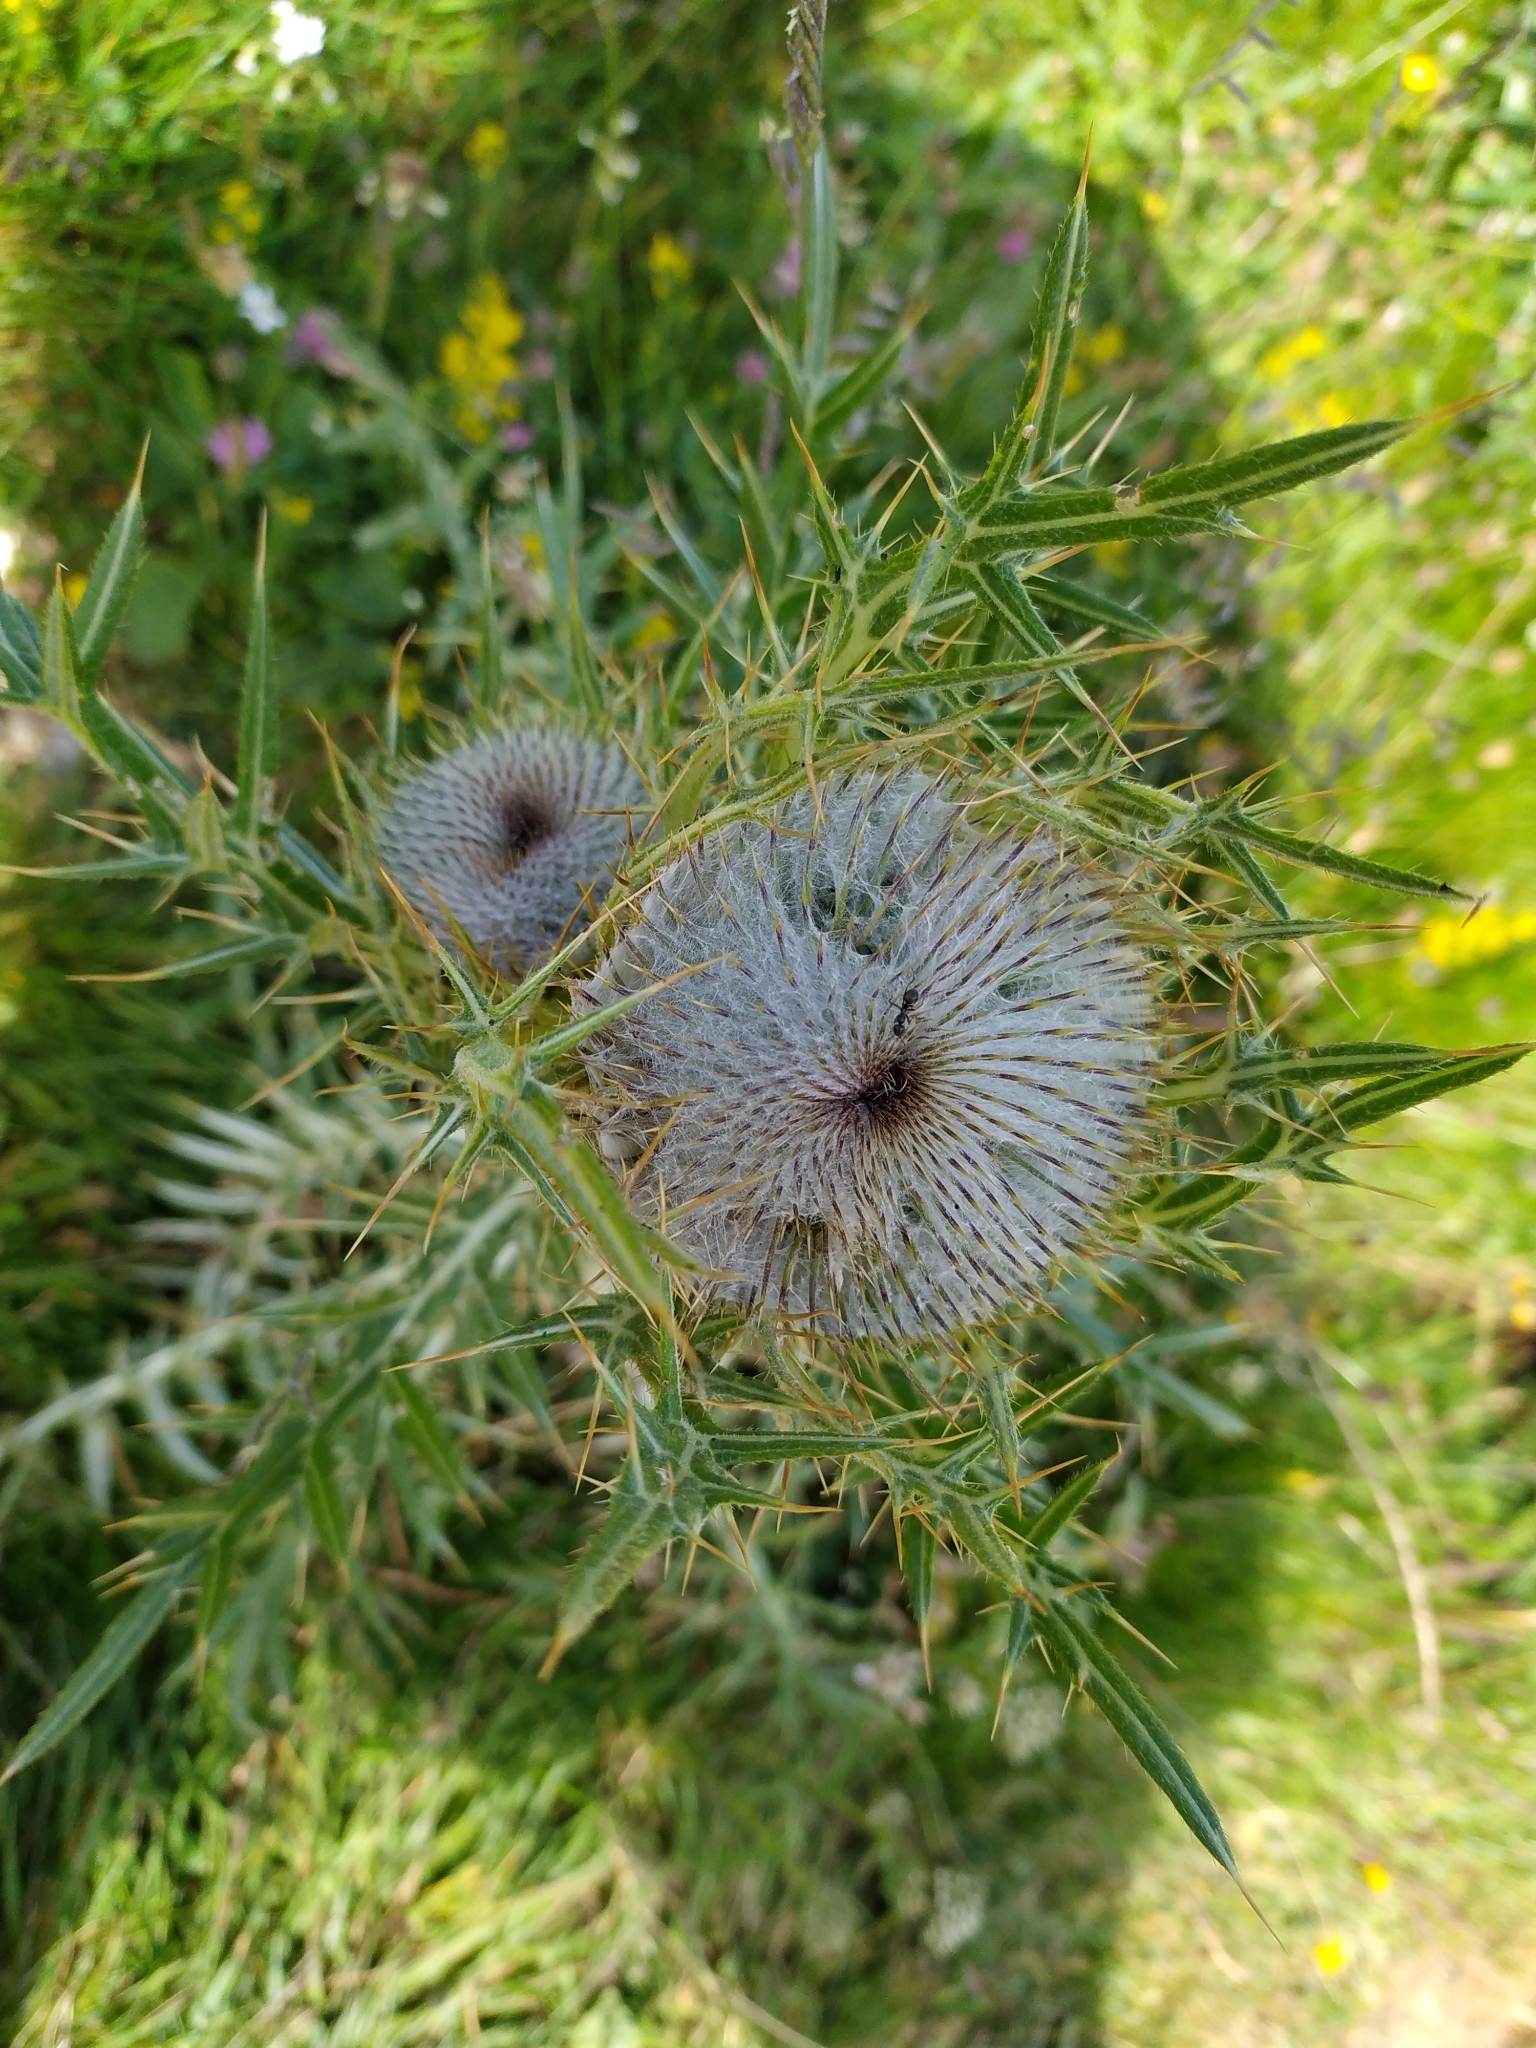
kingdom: Plantae
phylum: Tracheophyta
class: Magnoliopsida
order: Asterales
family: Asteraceae
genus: Lophiolepis
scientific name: Lophiolepis eriophora
